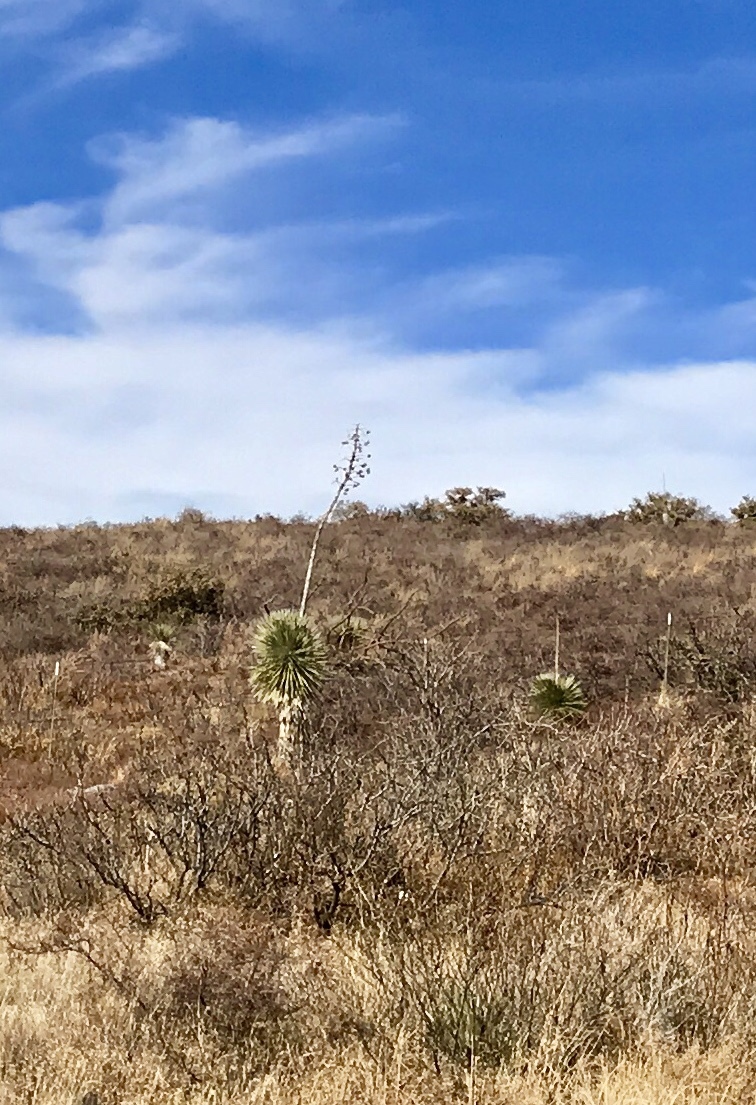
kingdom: Plantae
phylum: Tracheophyta
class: Liliopsida
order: Asparagales
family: Asparagaceae
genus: Yucca
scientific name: Yucca elata
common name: Palmella
